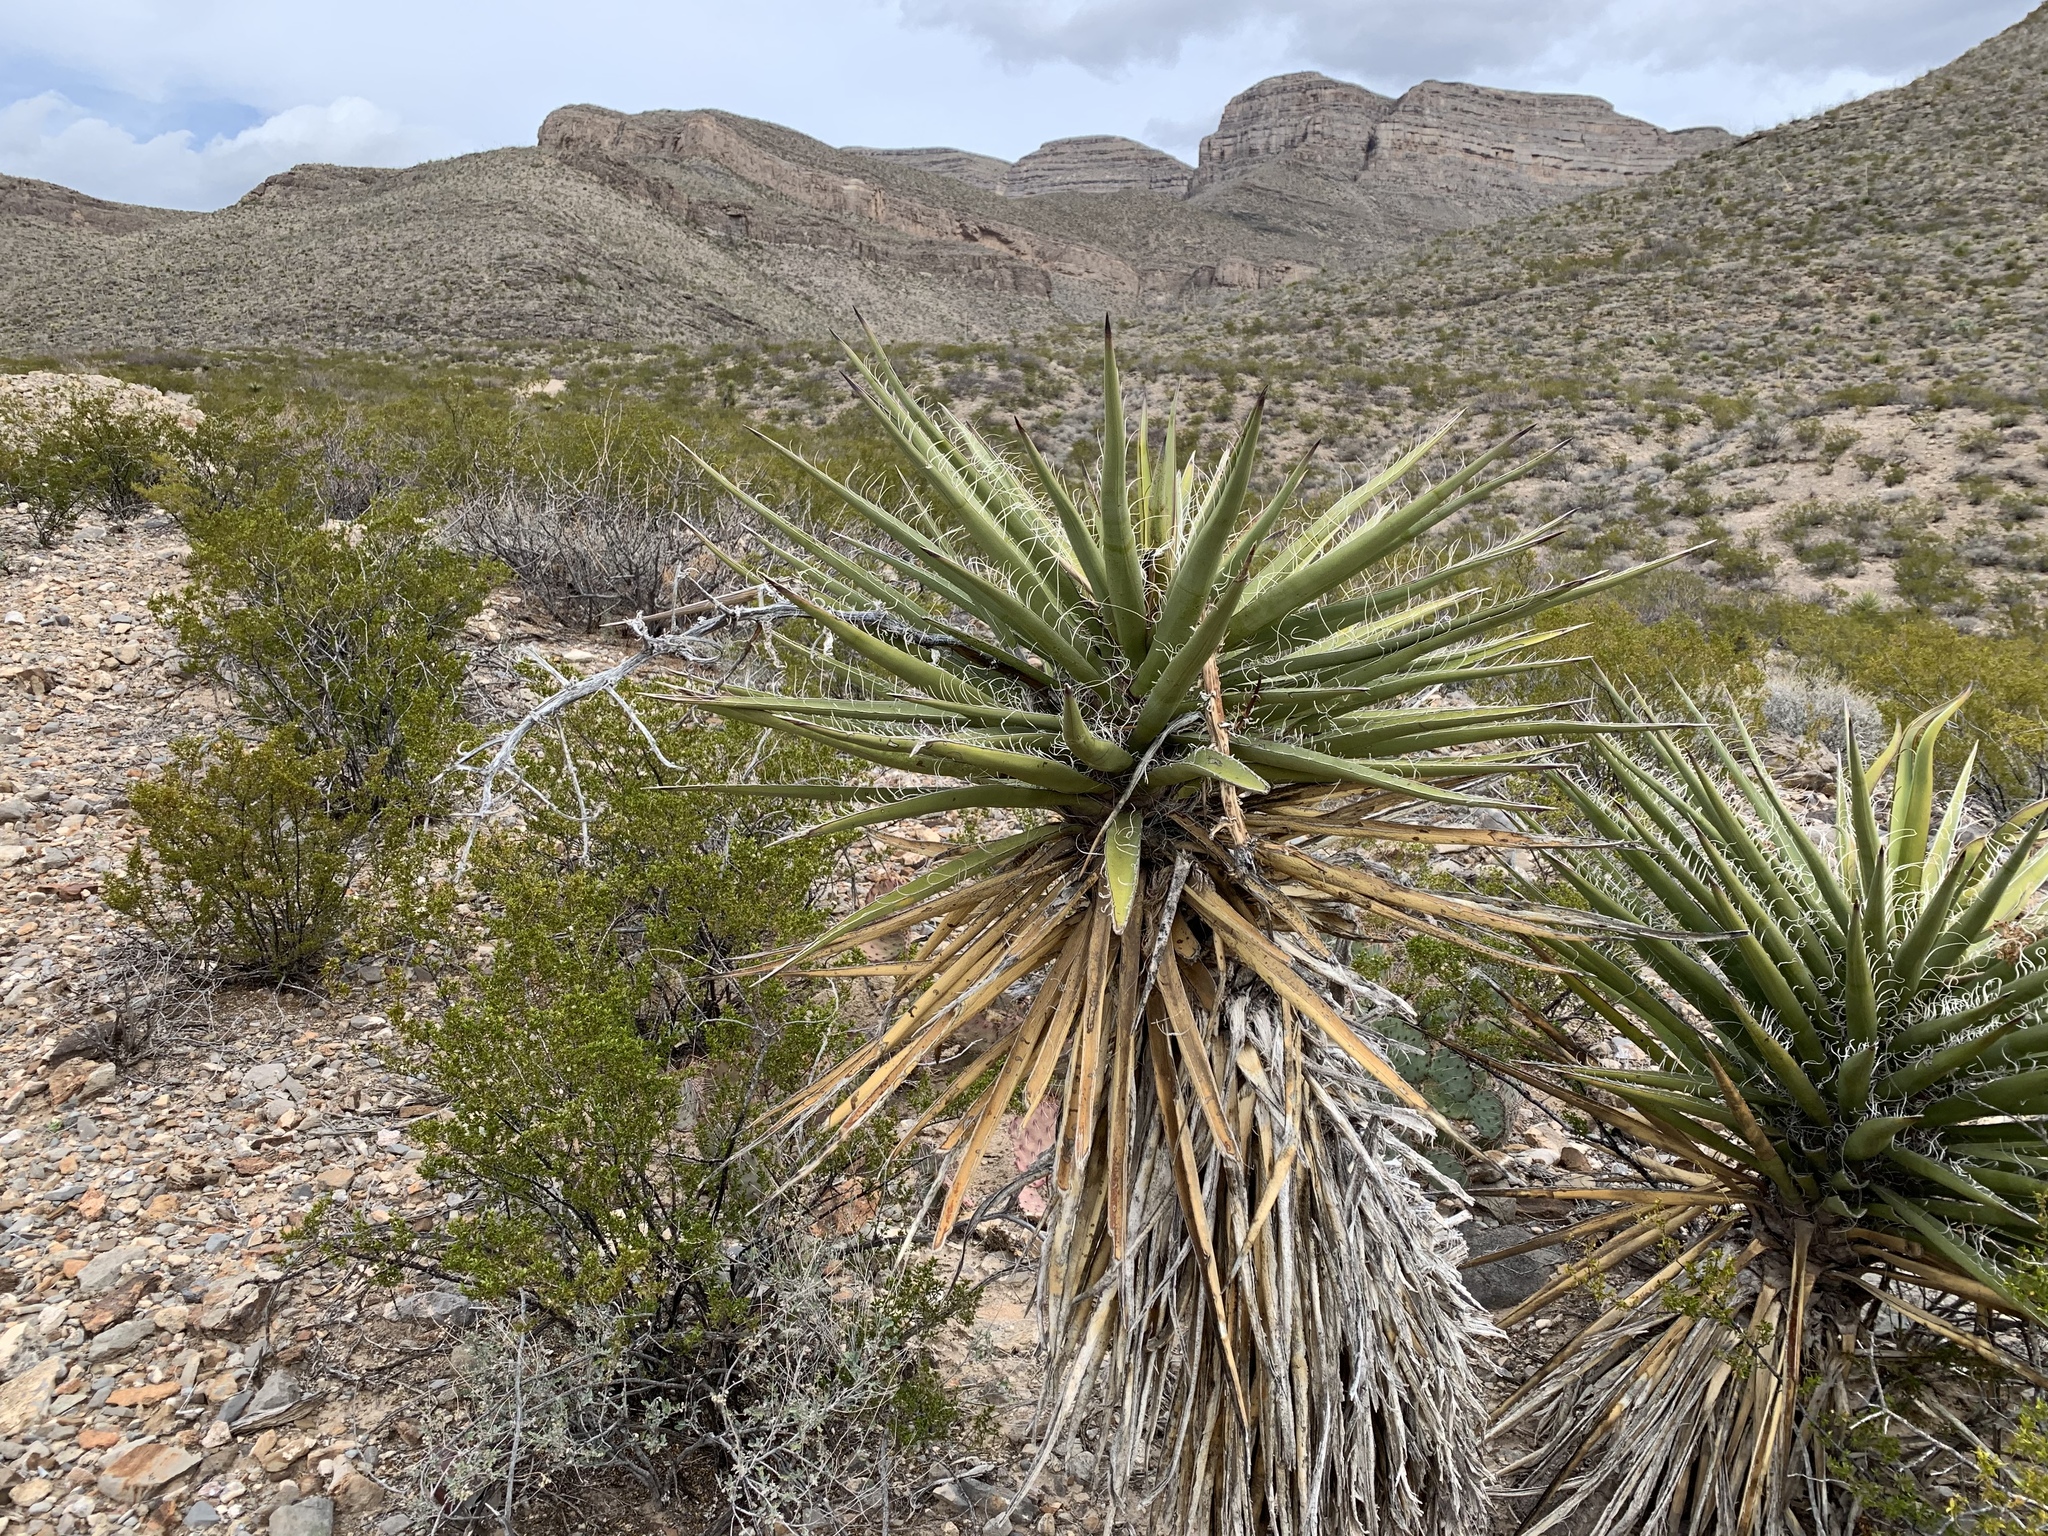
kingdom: Plantae
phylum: Tracheophyta
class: Liliopsida
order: Asparagales
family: Asparagaceae
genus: Yucca
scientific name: Yucca treculiana
